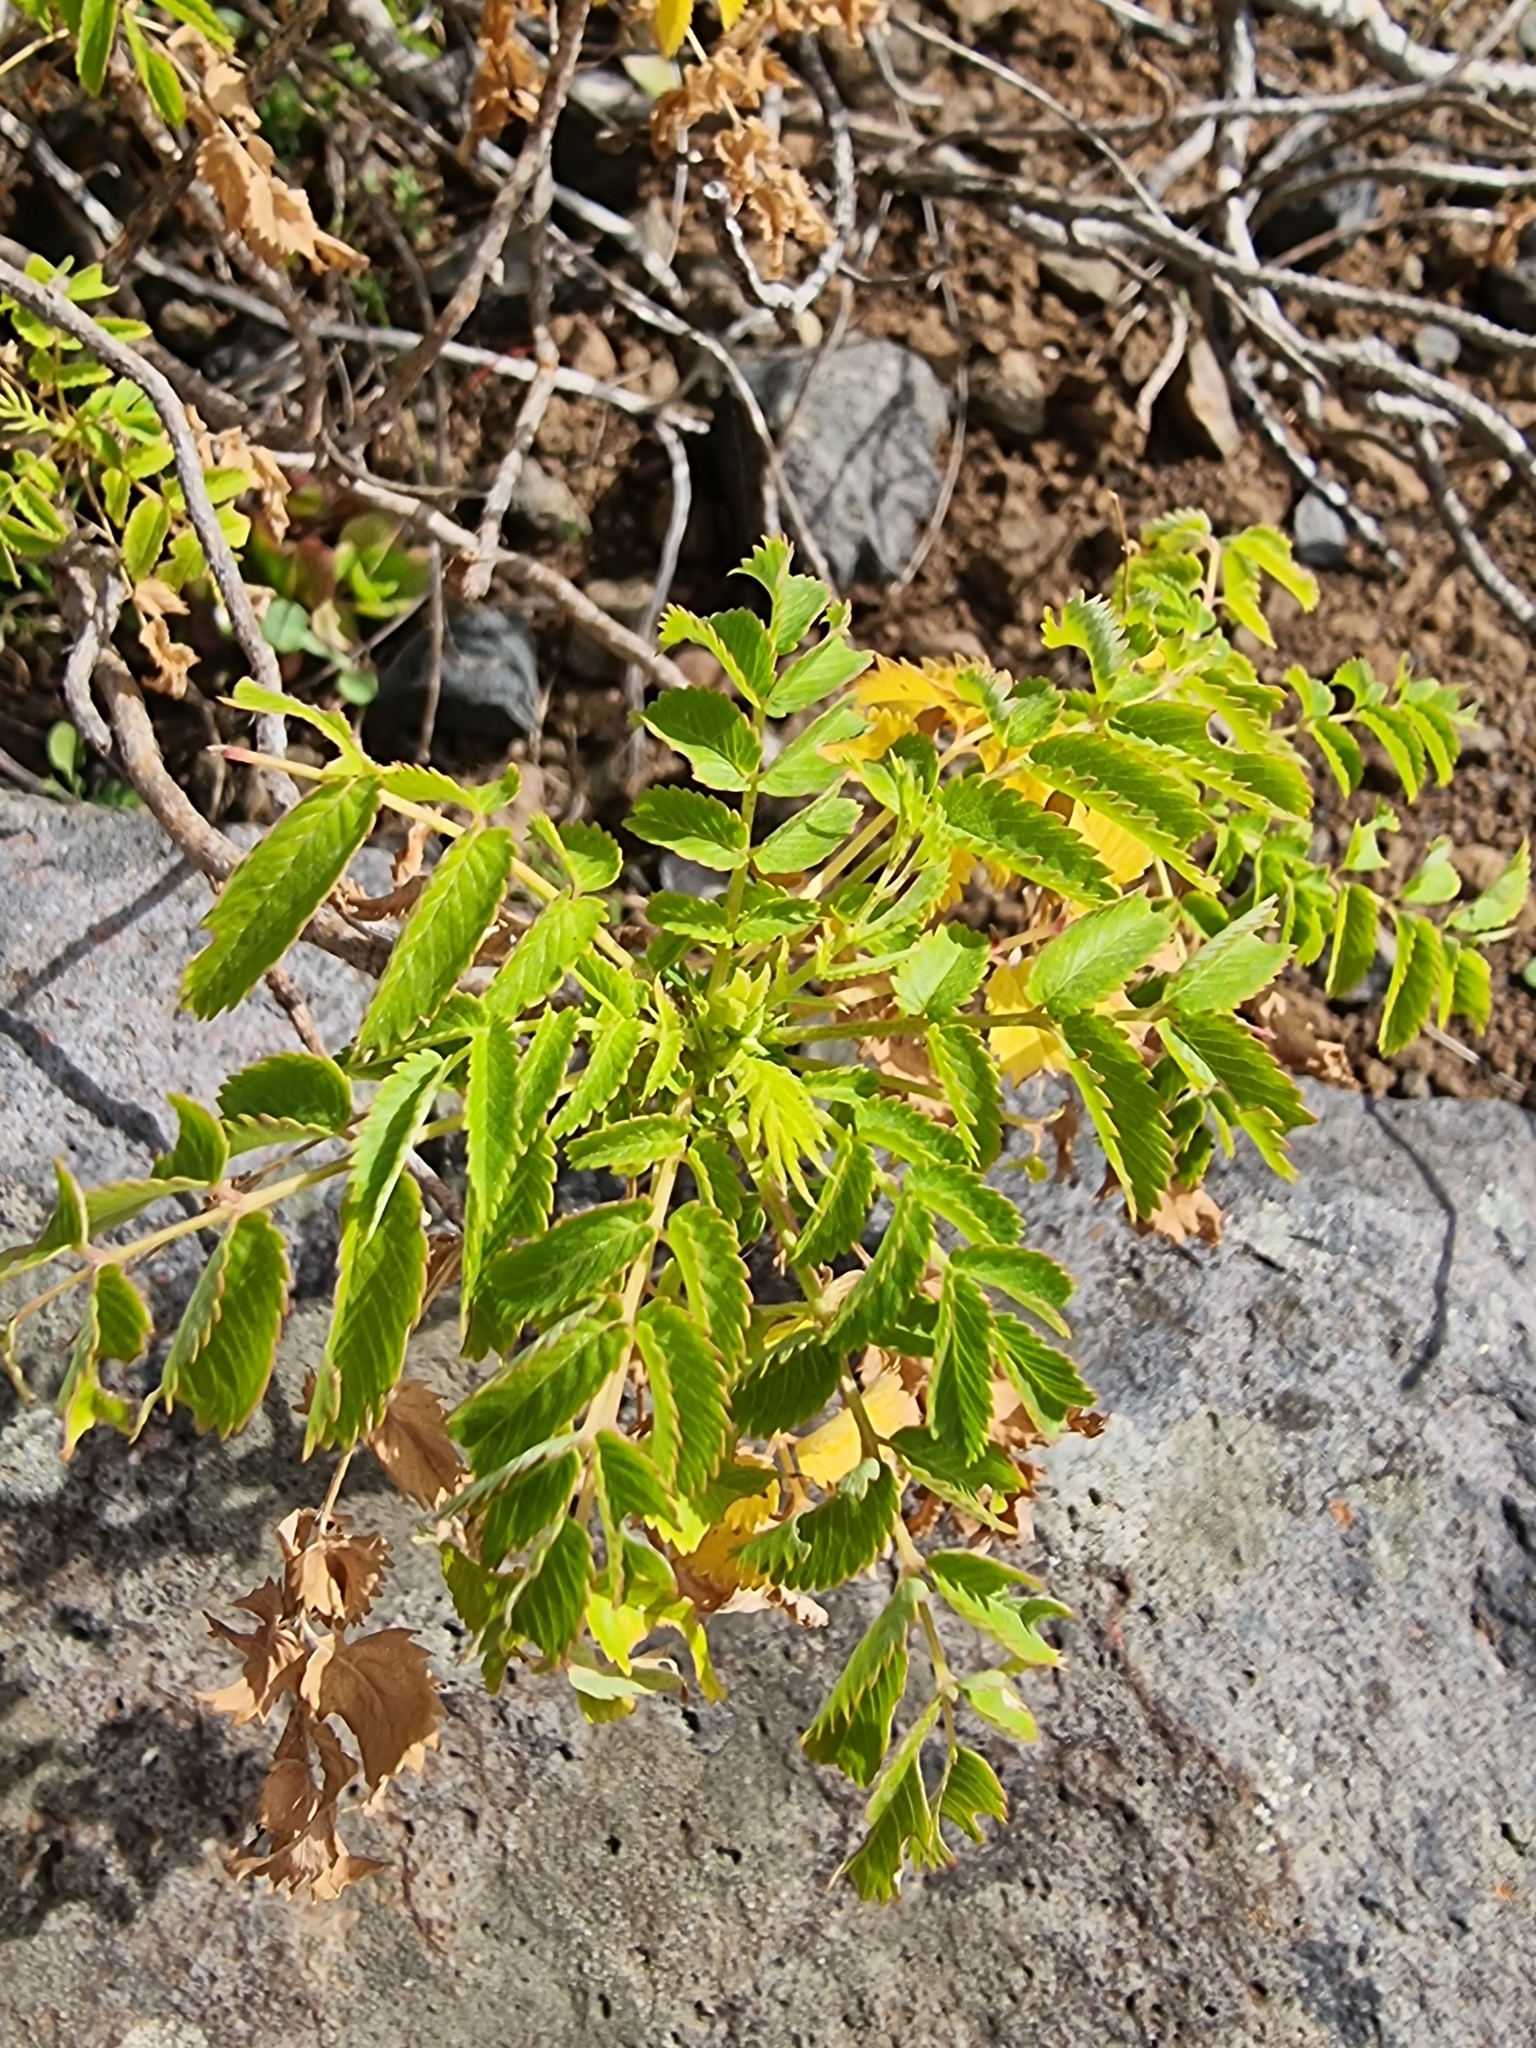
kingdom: Plantae
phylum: Tracheophyta
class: Magnoliopsida
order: Rosales
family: Rosaceae
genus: Marcetella
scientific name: Marcetella maderensis
